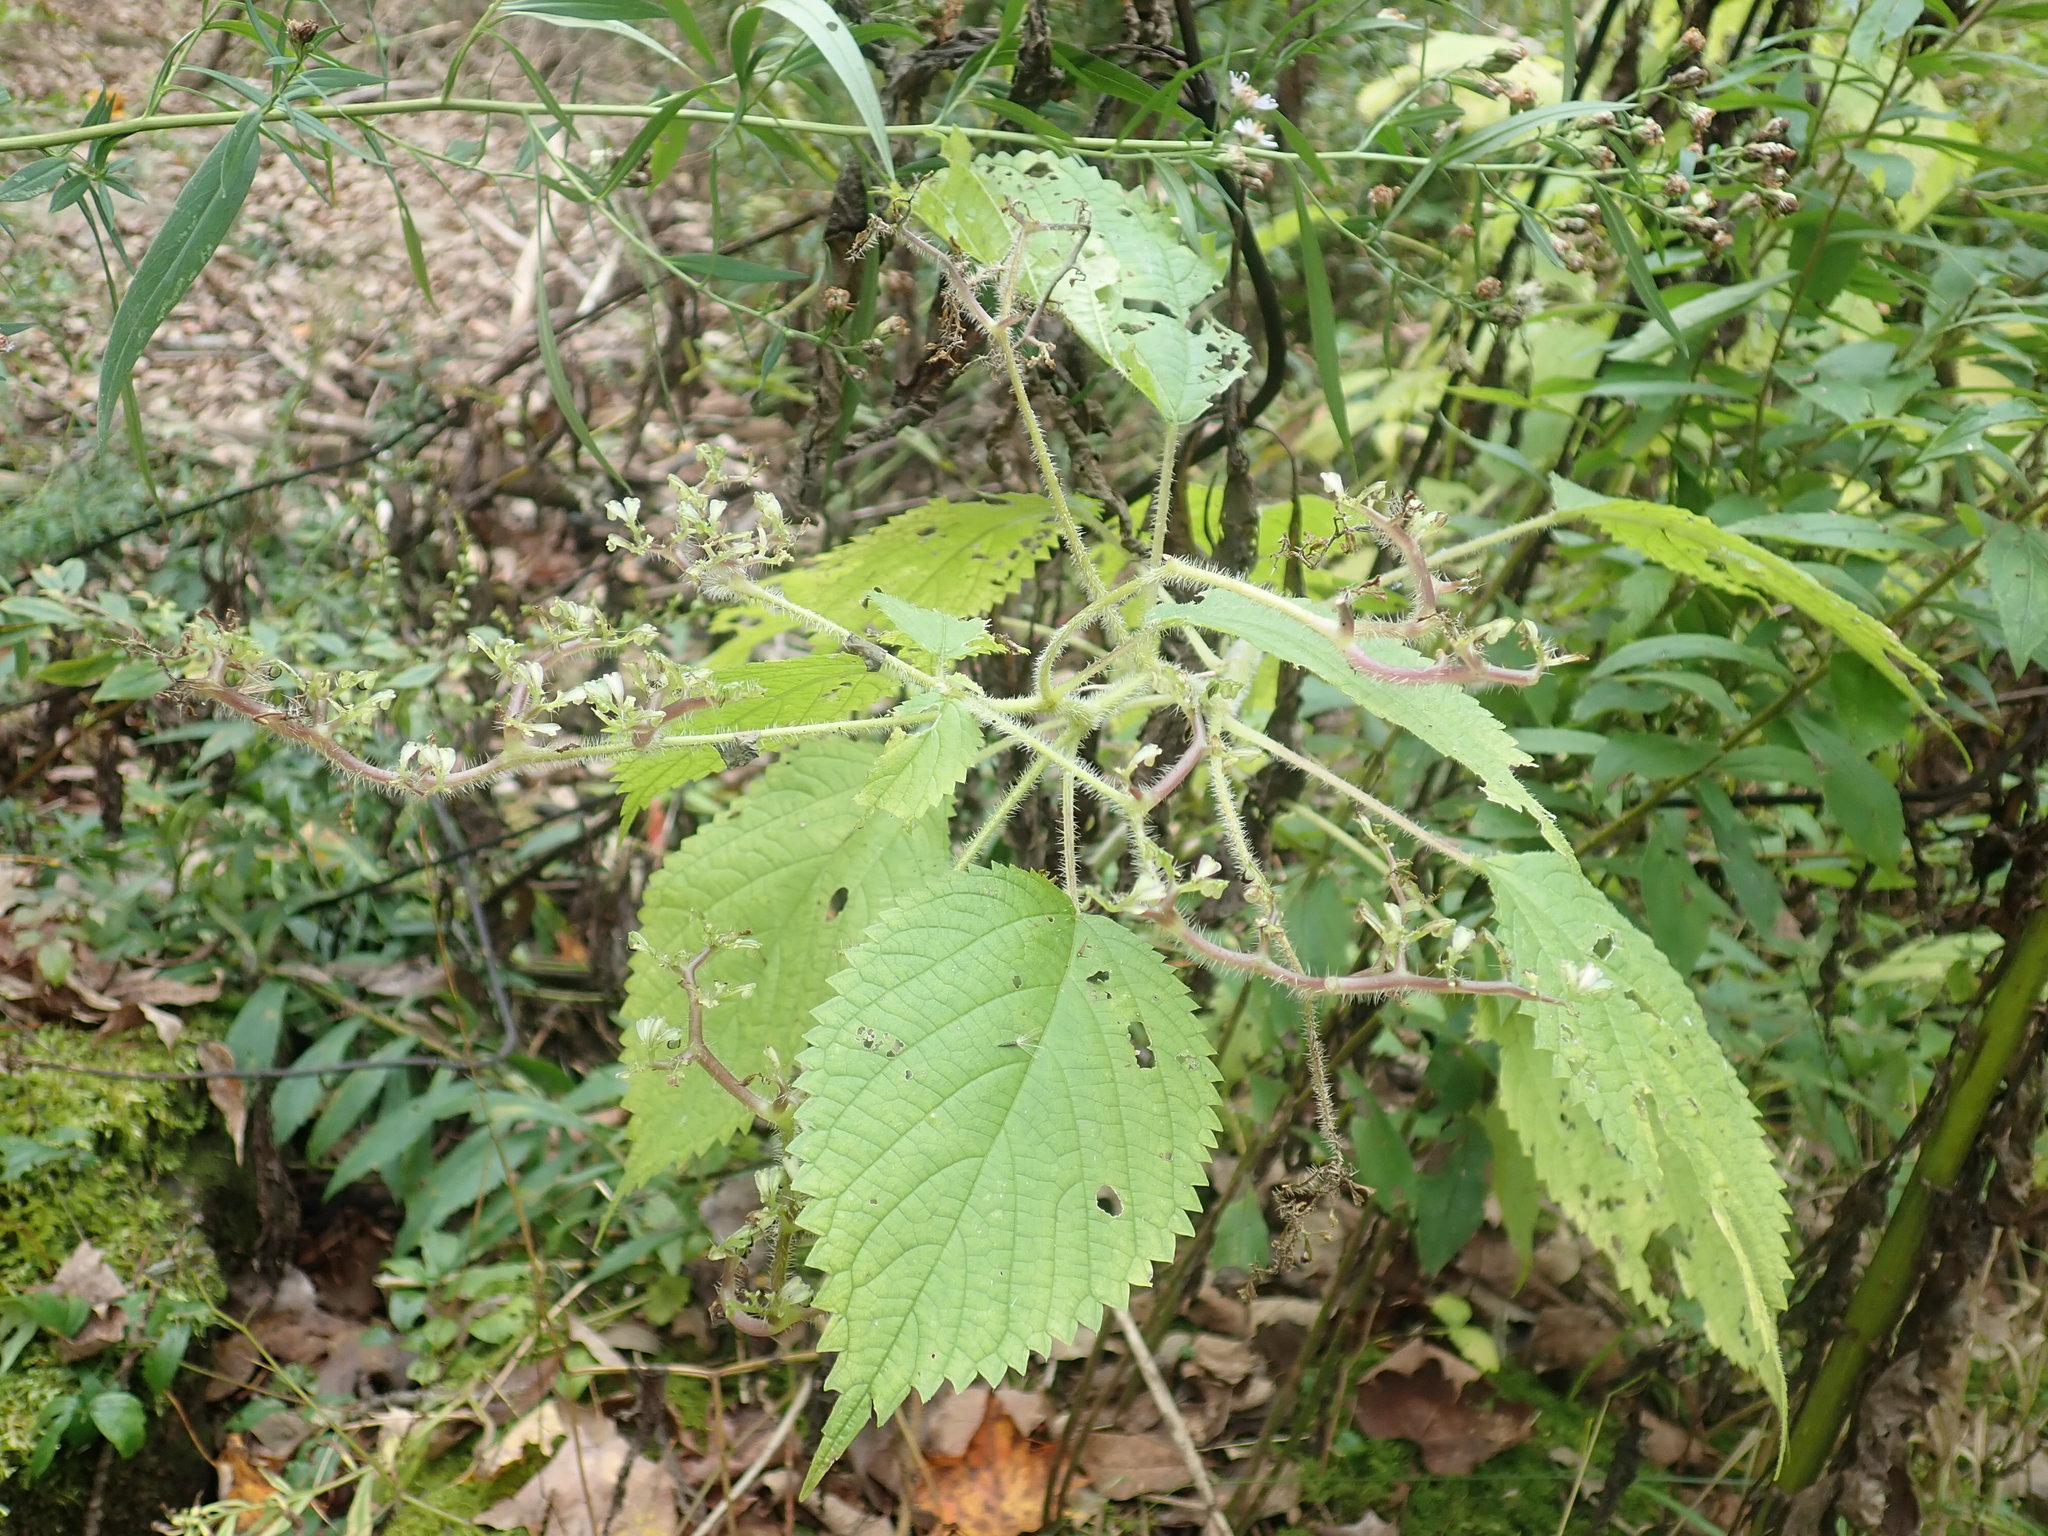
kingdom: Plantae
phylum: Tracheophyta
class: Magnoliopsida
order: Rosales
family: Urticaceae
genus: Laportea
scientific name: Laportea canadensis
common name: Canada nettle
